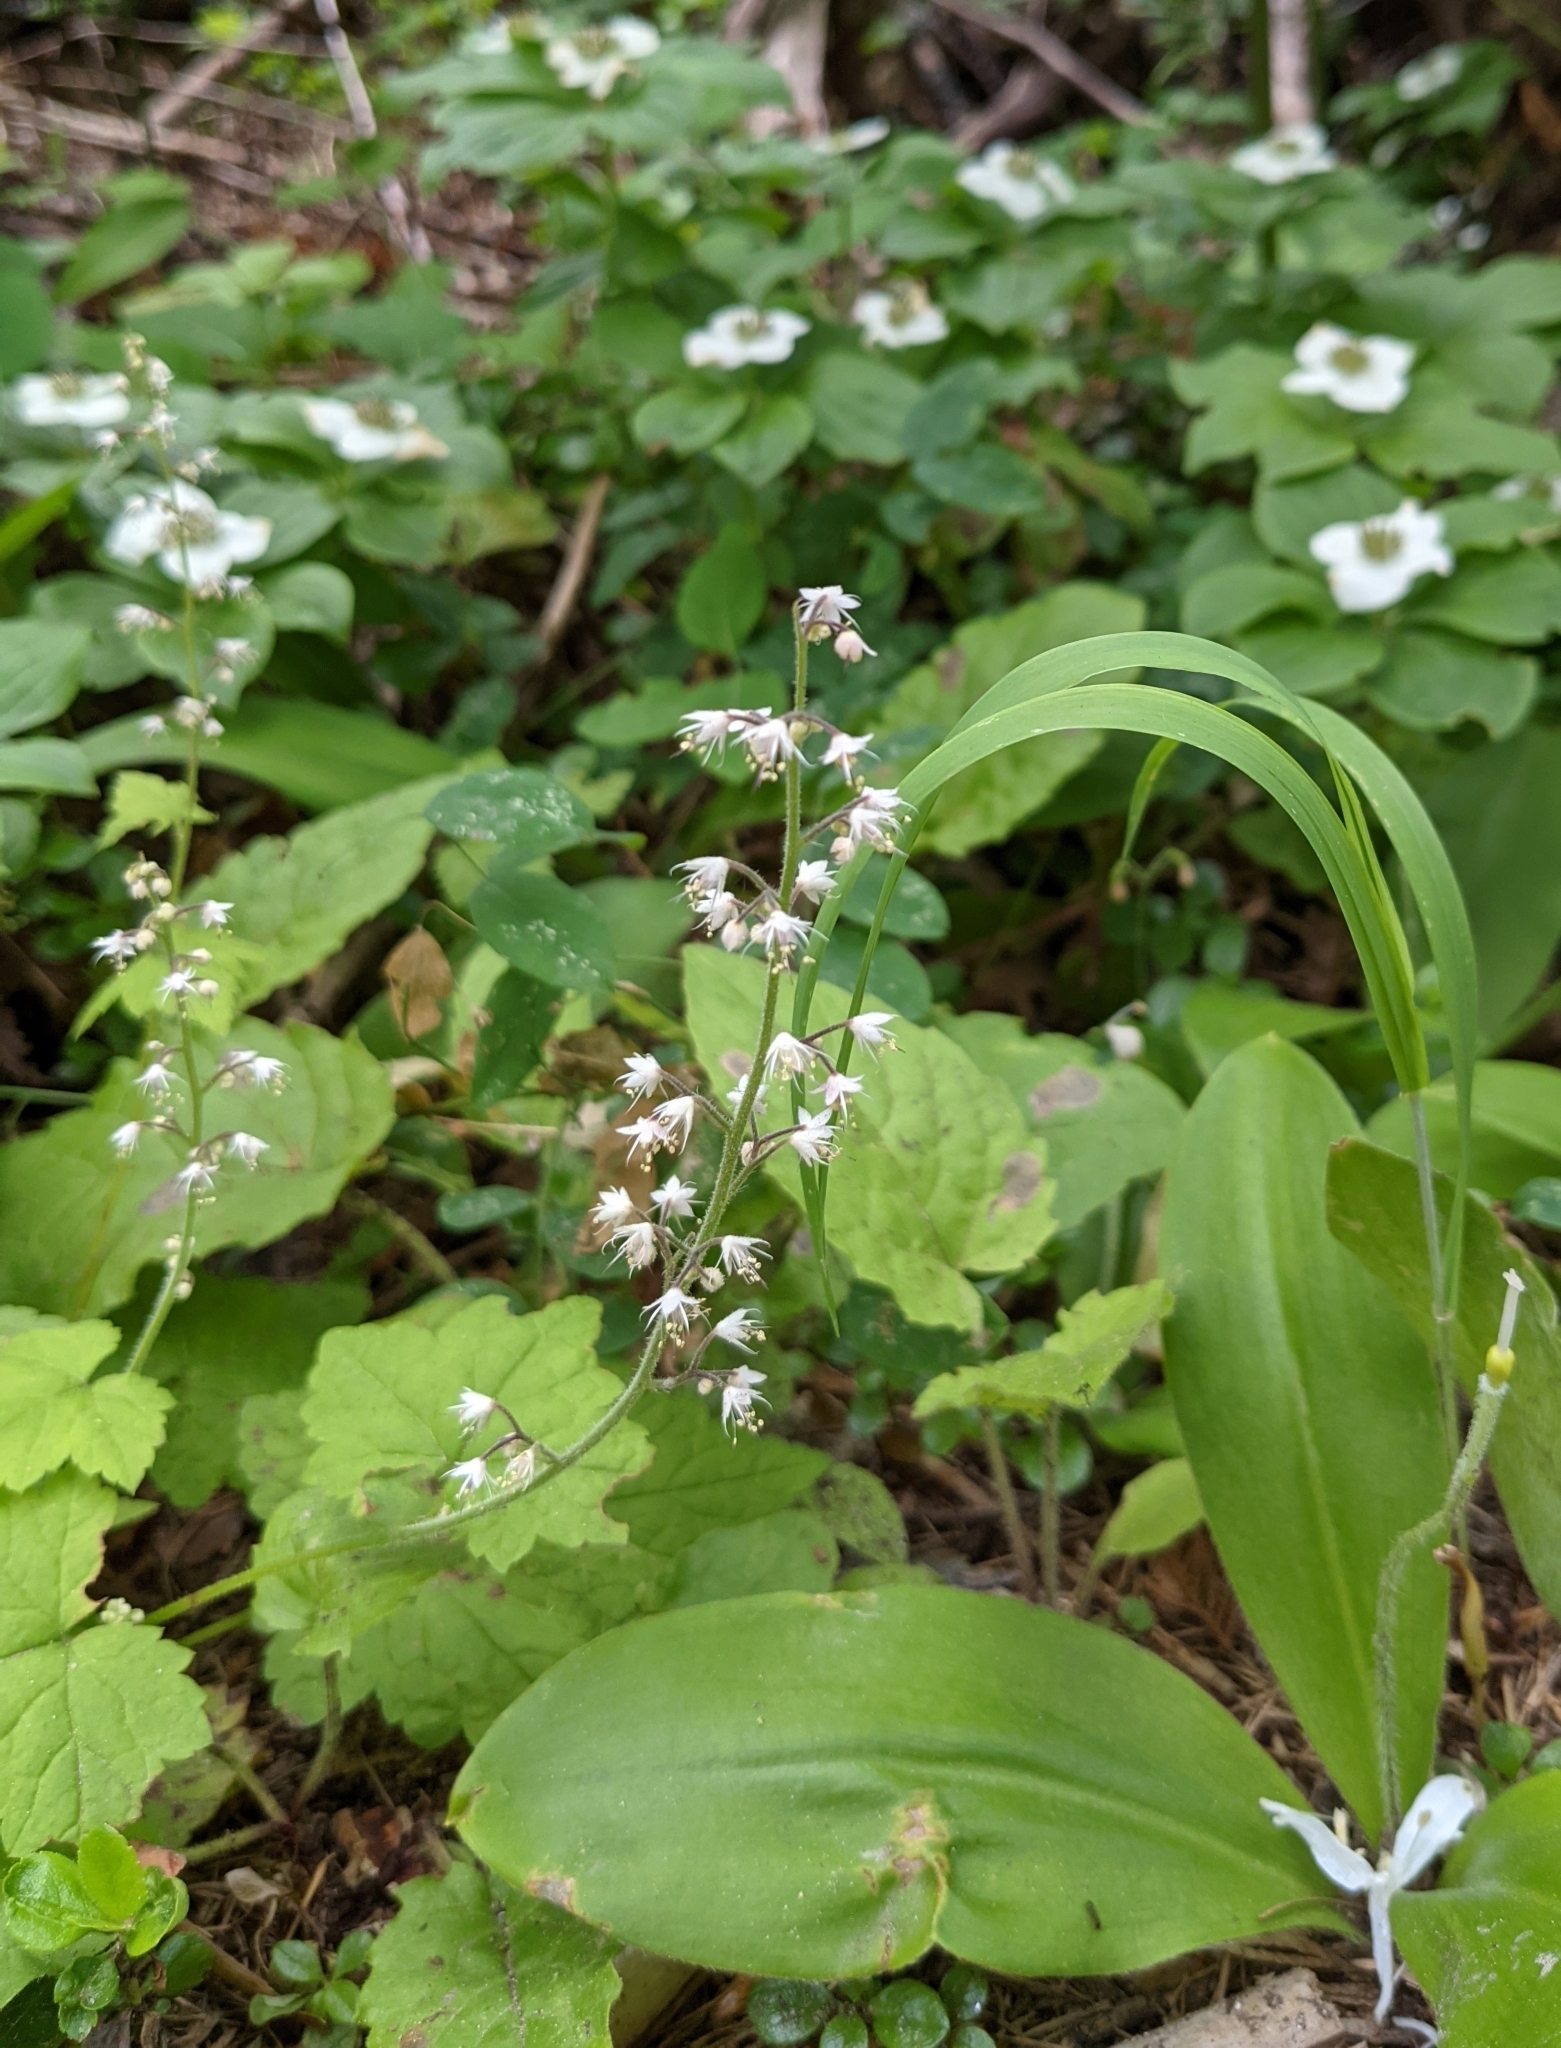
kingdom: Plantae
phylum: Tracheophyta
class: Magnoliopsida
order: Saxifragales
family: Saxifragaceae
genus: Tiarella
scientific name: Tiarella trifoliata
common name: Sugar-scoop
